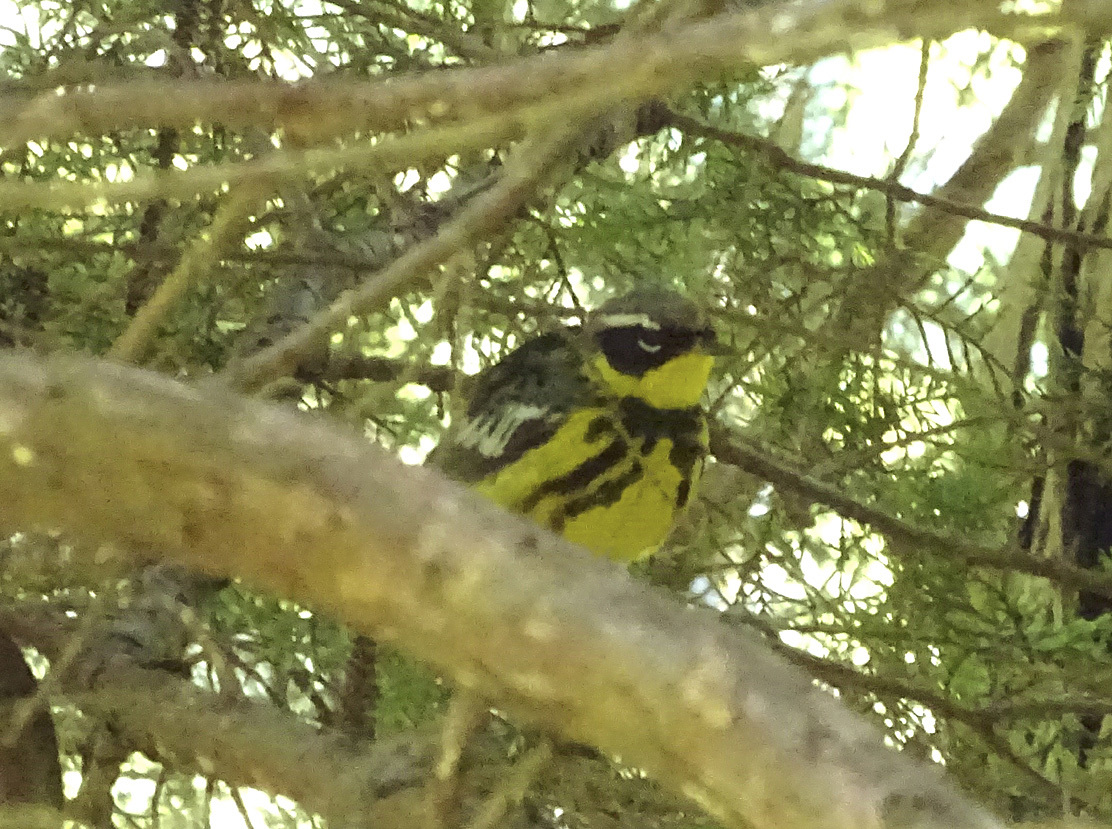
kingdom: Animalia
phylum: Chordata
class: Aves
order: Passeriformes
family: Parulidae
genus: Setophaga
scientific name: Setophaga magnolia
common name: Magnolia warbler
